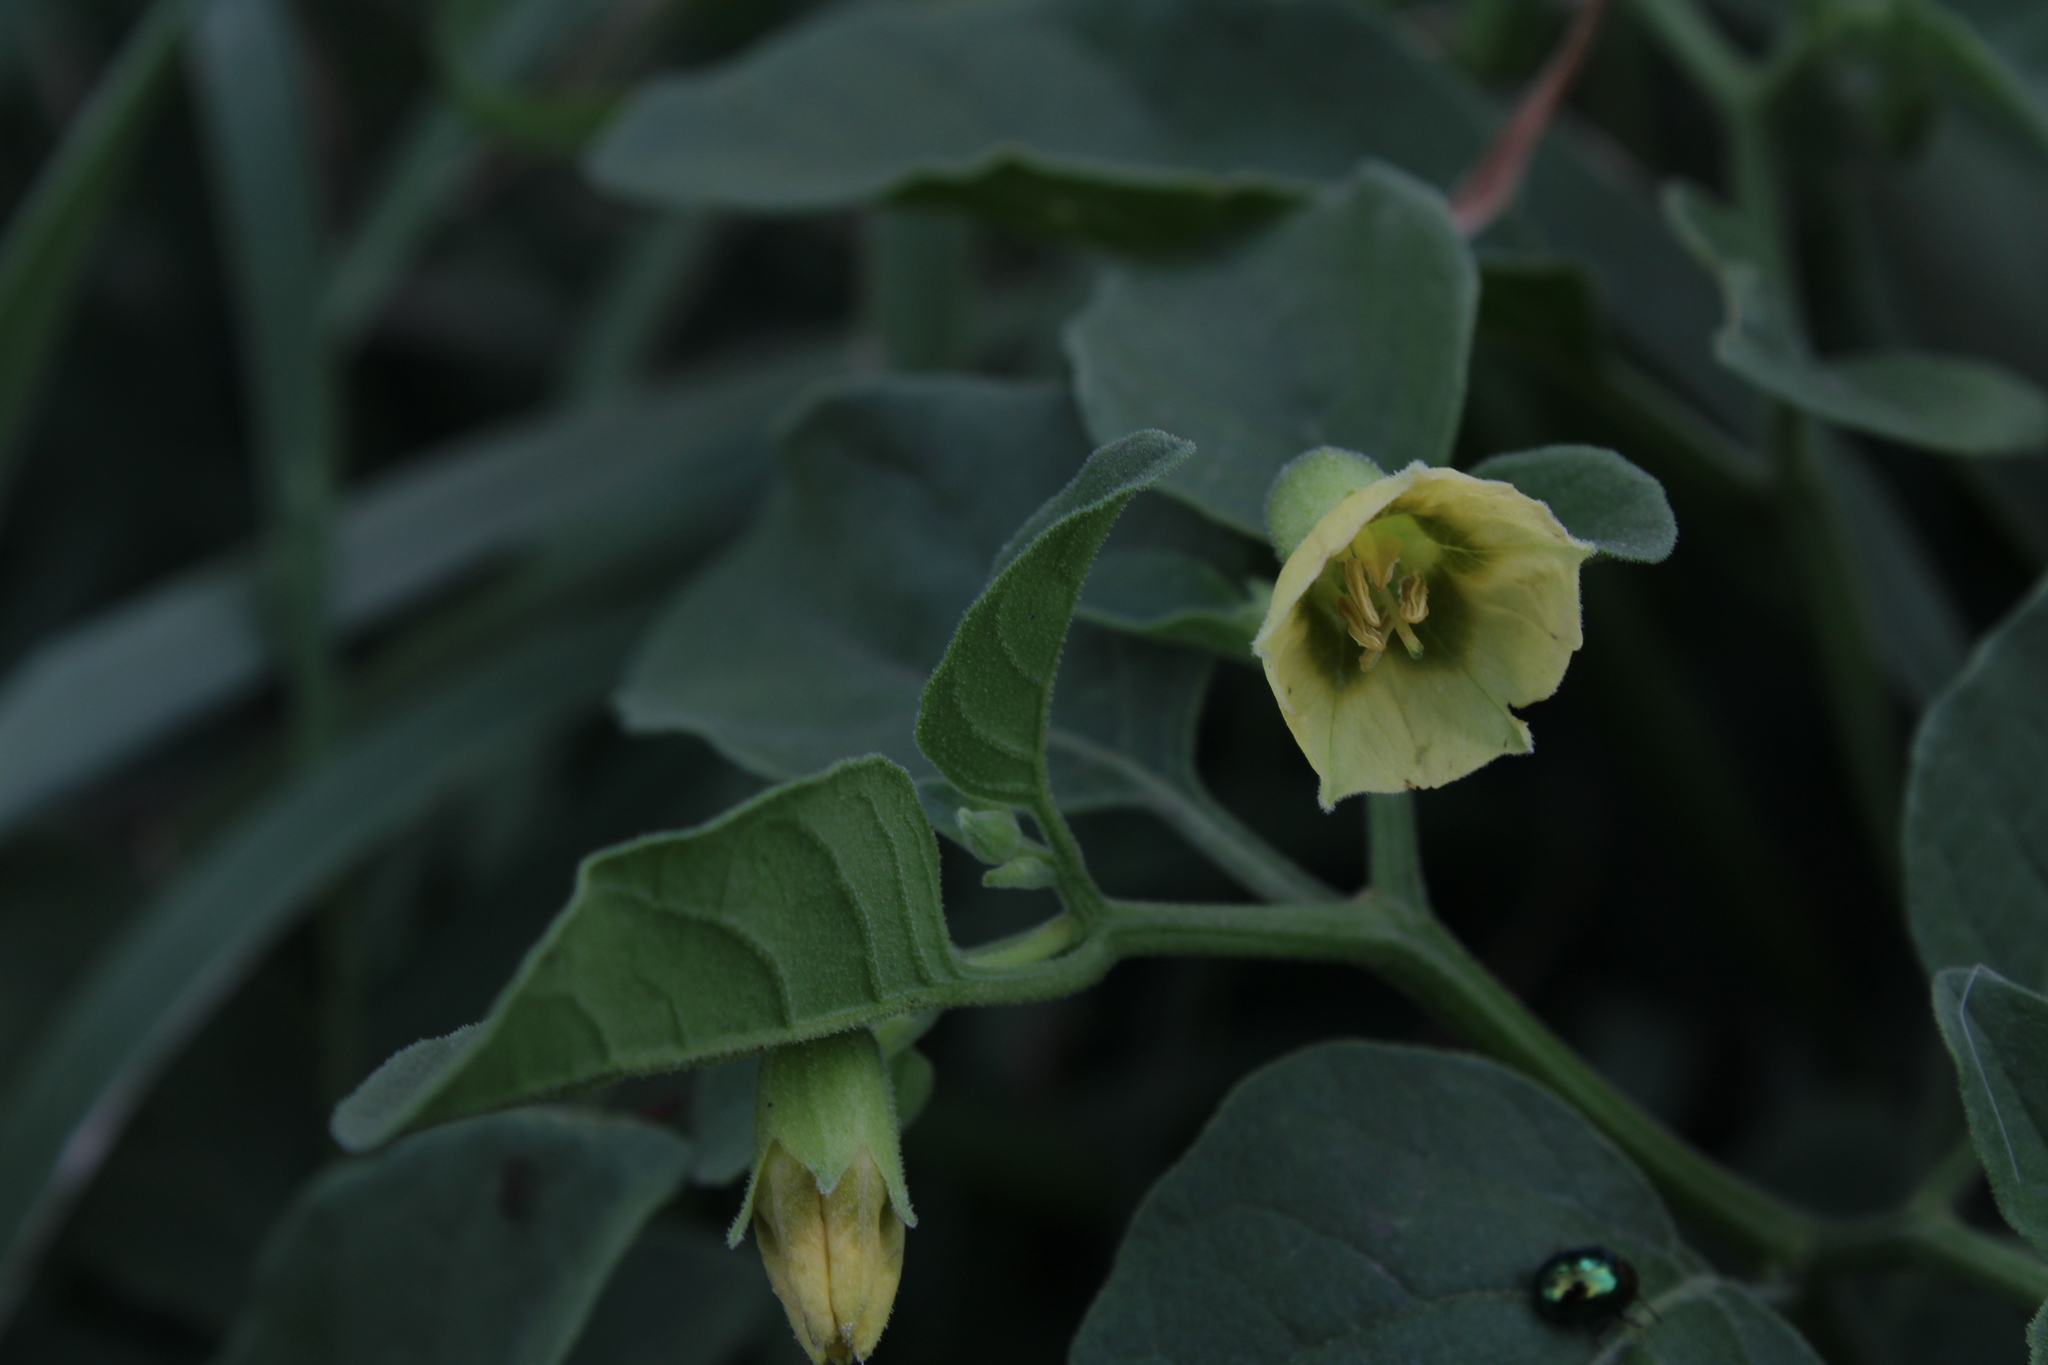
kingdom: Plantae
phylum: Tracheophyta
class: Magnoliopsida
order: Solanales
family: Solanaceae
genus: Physalis
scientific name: Physalis viscosa
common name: Stellate ground-cherry
